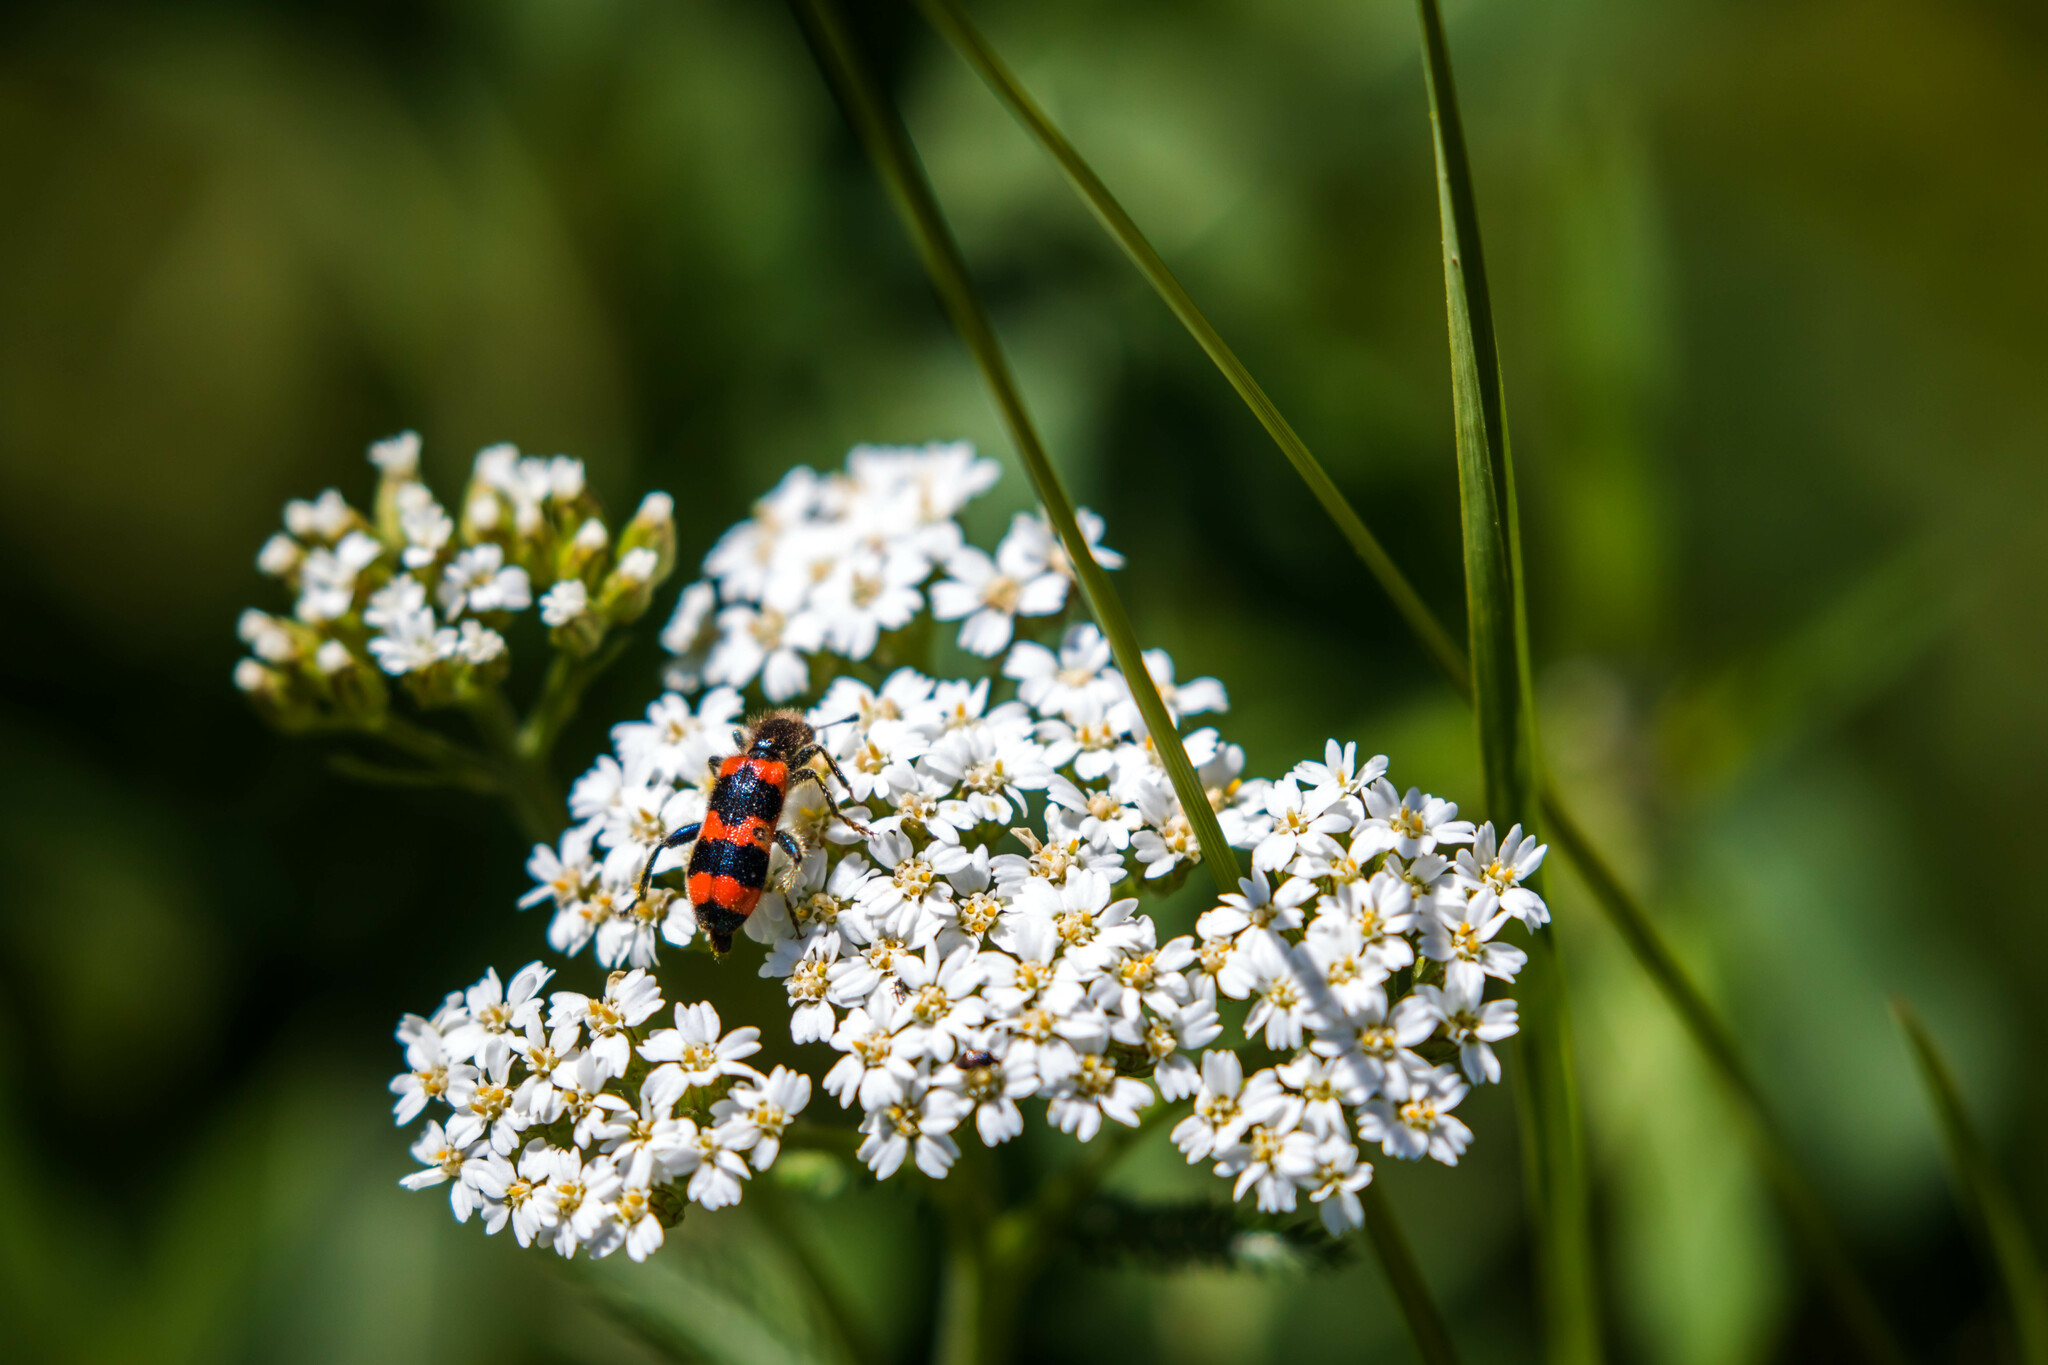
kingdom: Animalia
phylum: Arthropoda
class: Insecta
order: Coleoptera
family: Cleridae
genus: Trichodes
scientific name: Trichodes apiarius
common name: Bee-eating beetle
